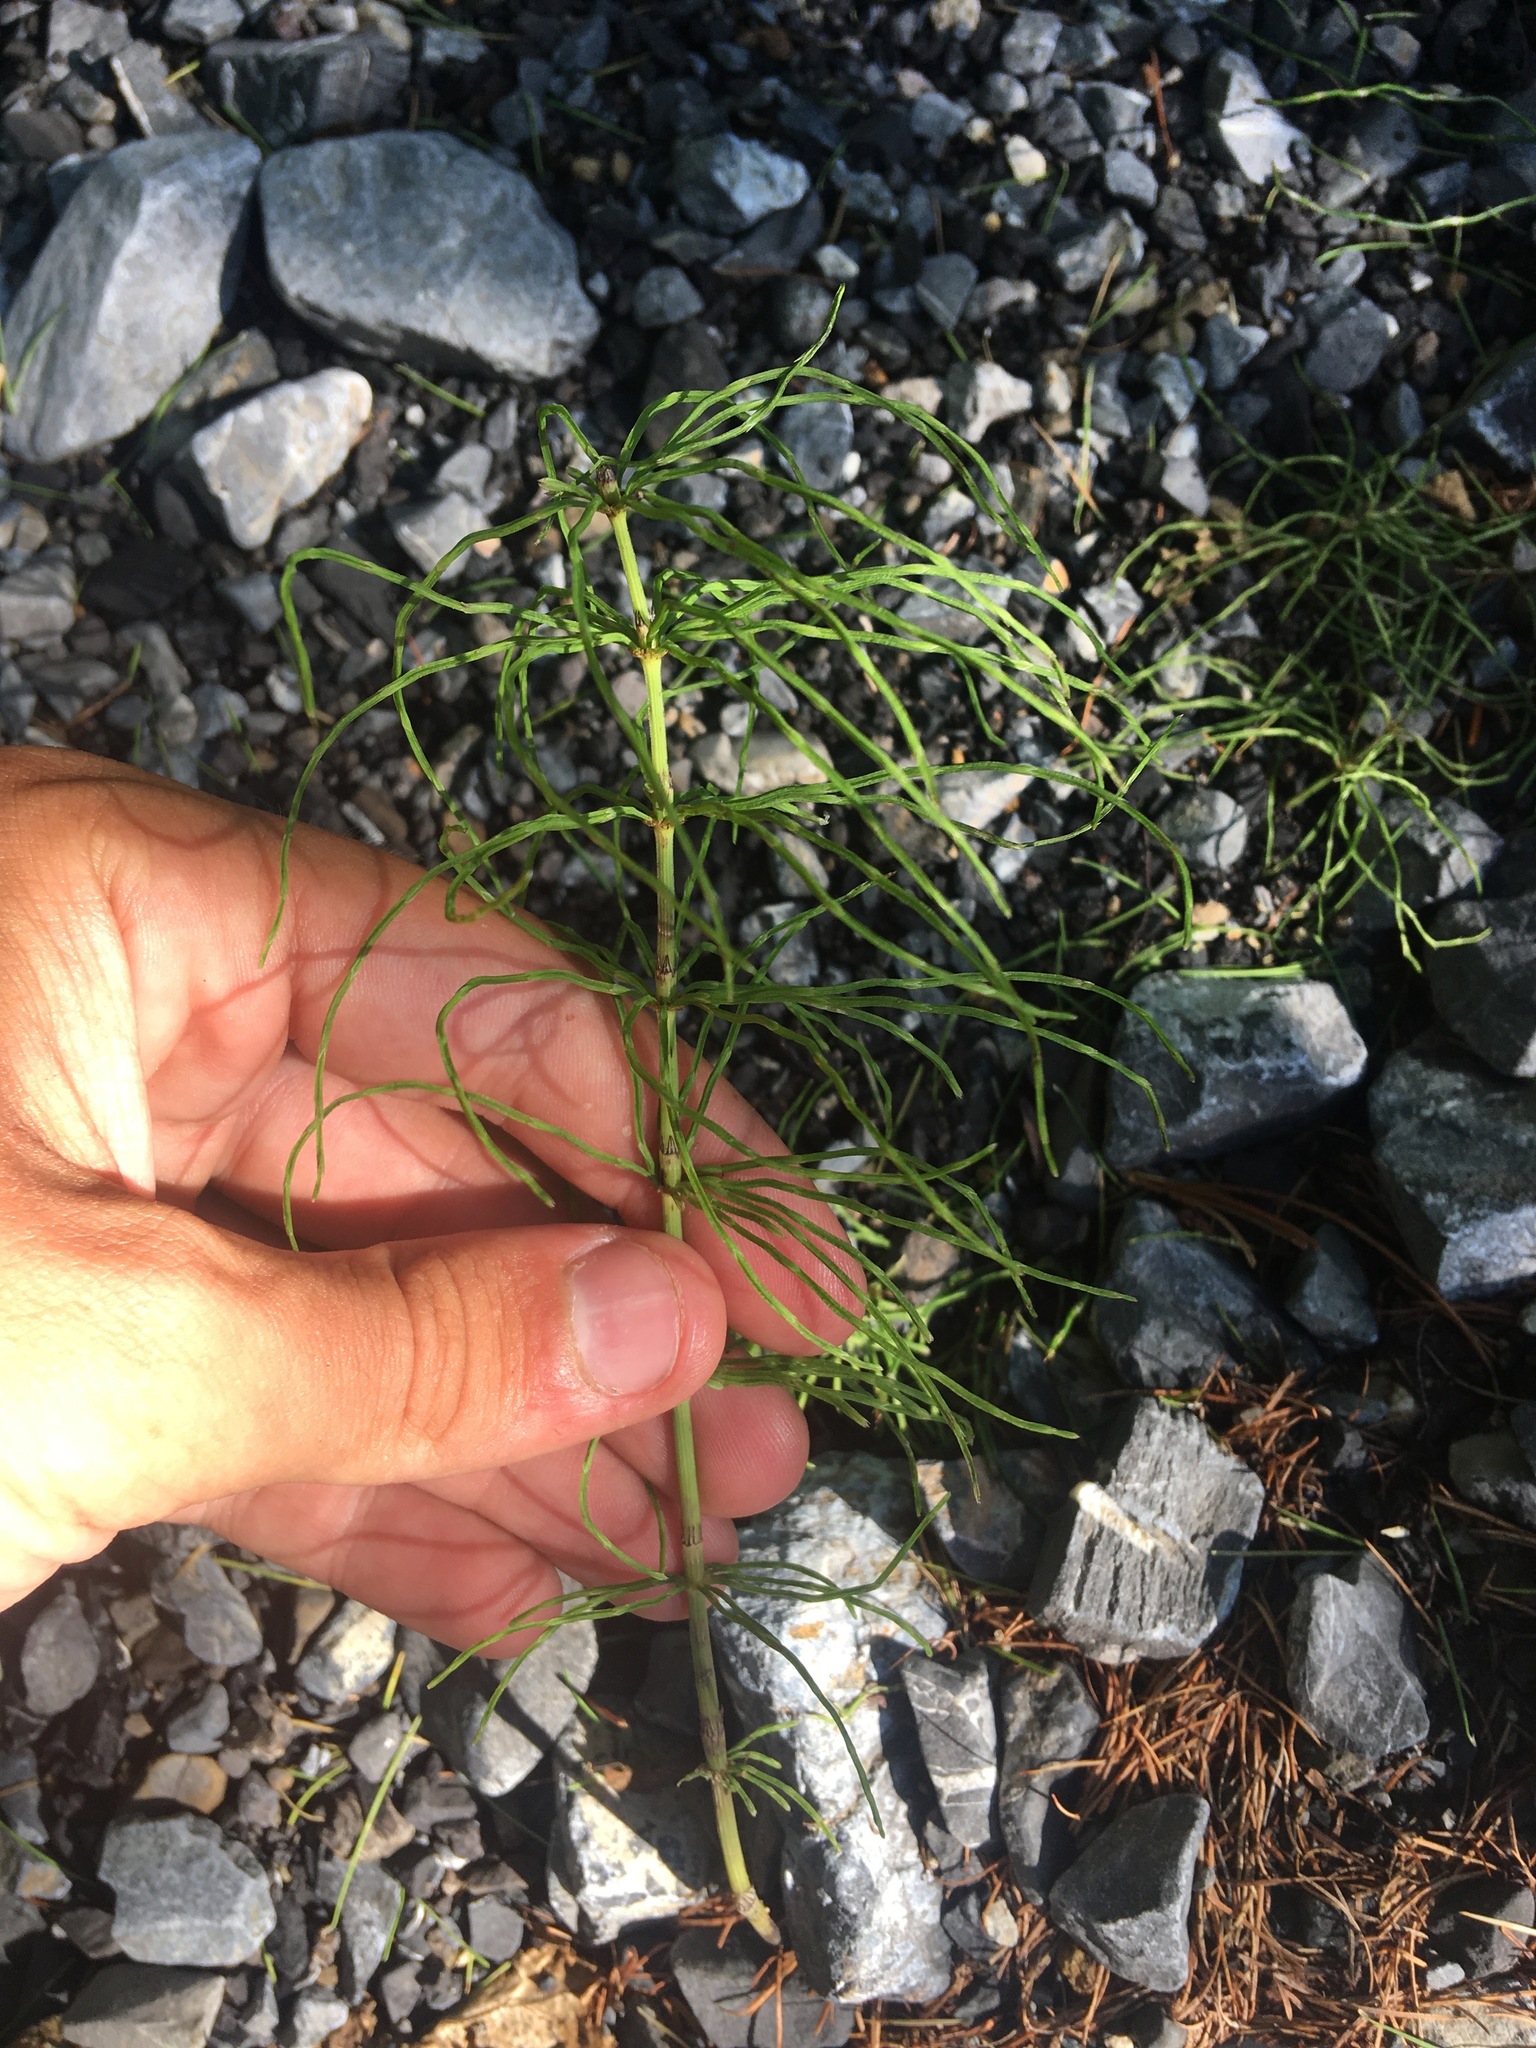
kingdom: Plantae
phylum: Tracheophyta
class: Polypodiopsida
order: Equisetales
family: Equisetaceae
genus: Equisetum
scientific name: Equisetum pratense
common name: Meadow horsetail
